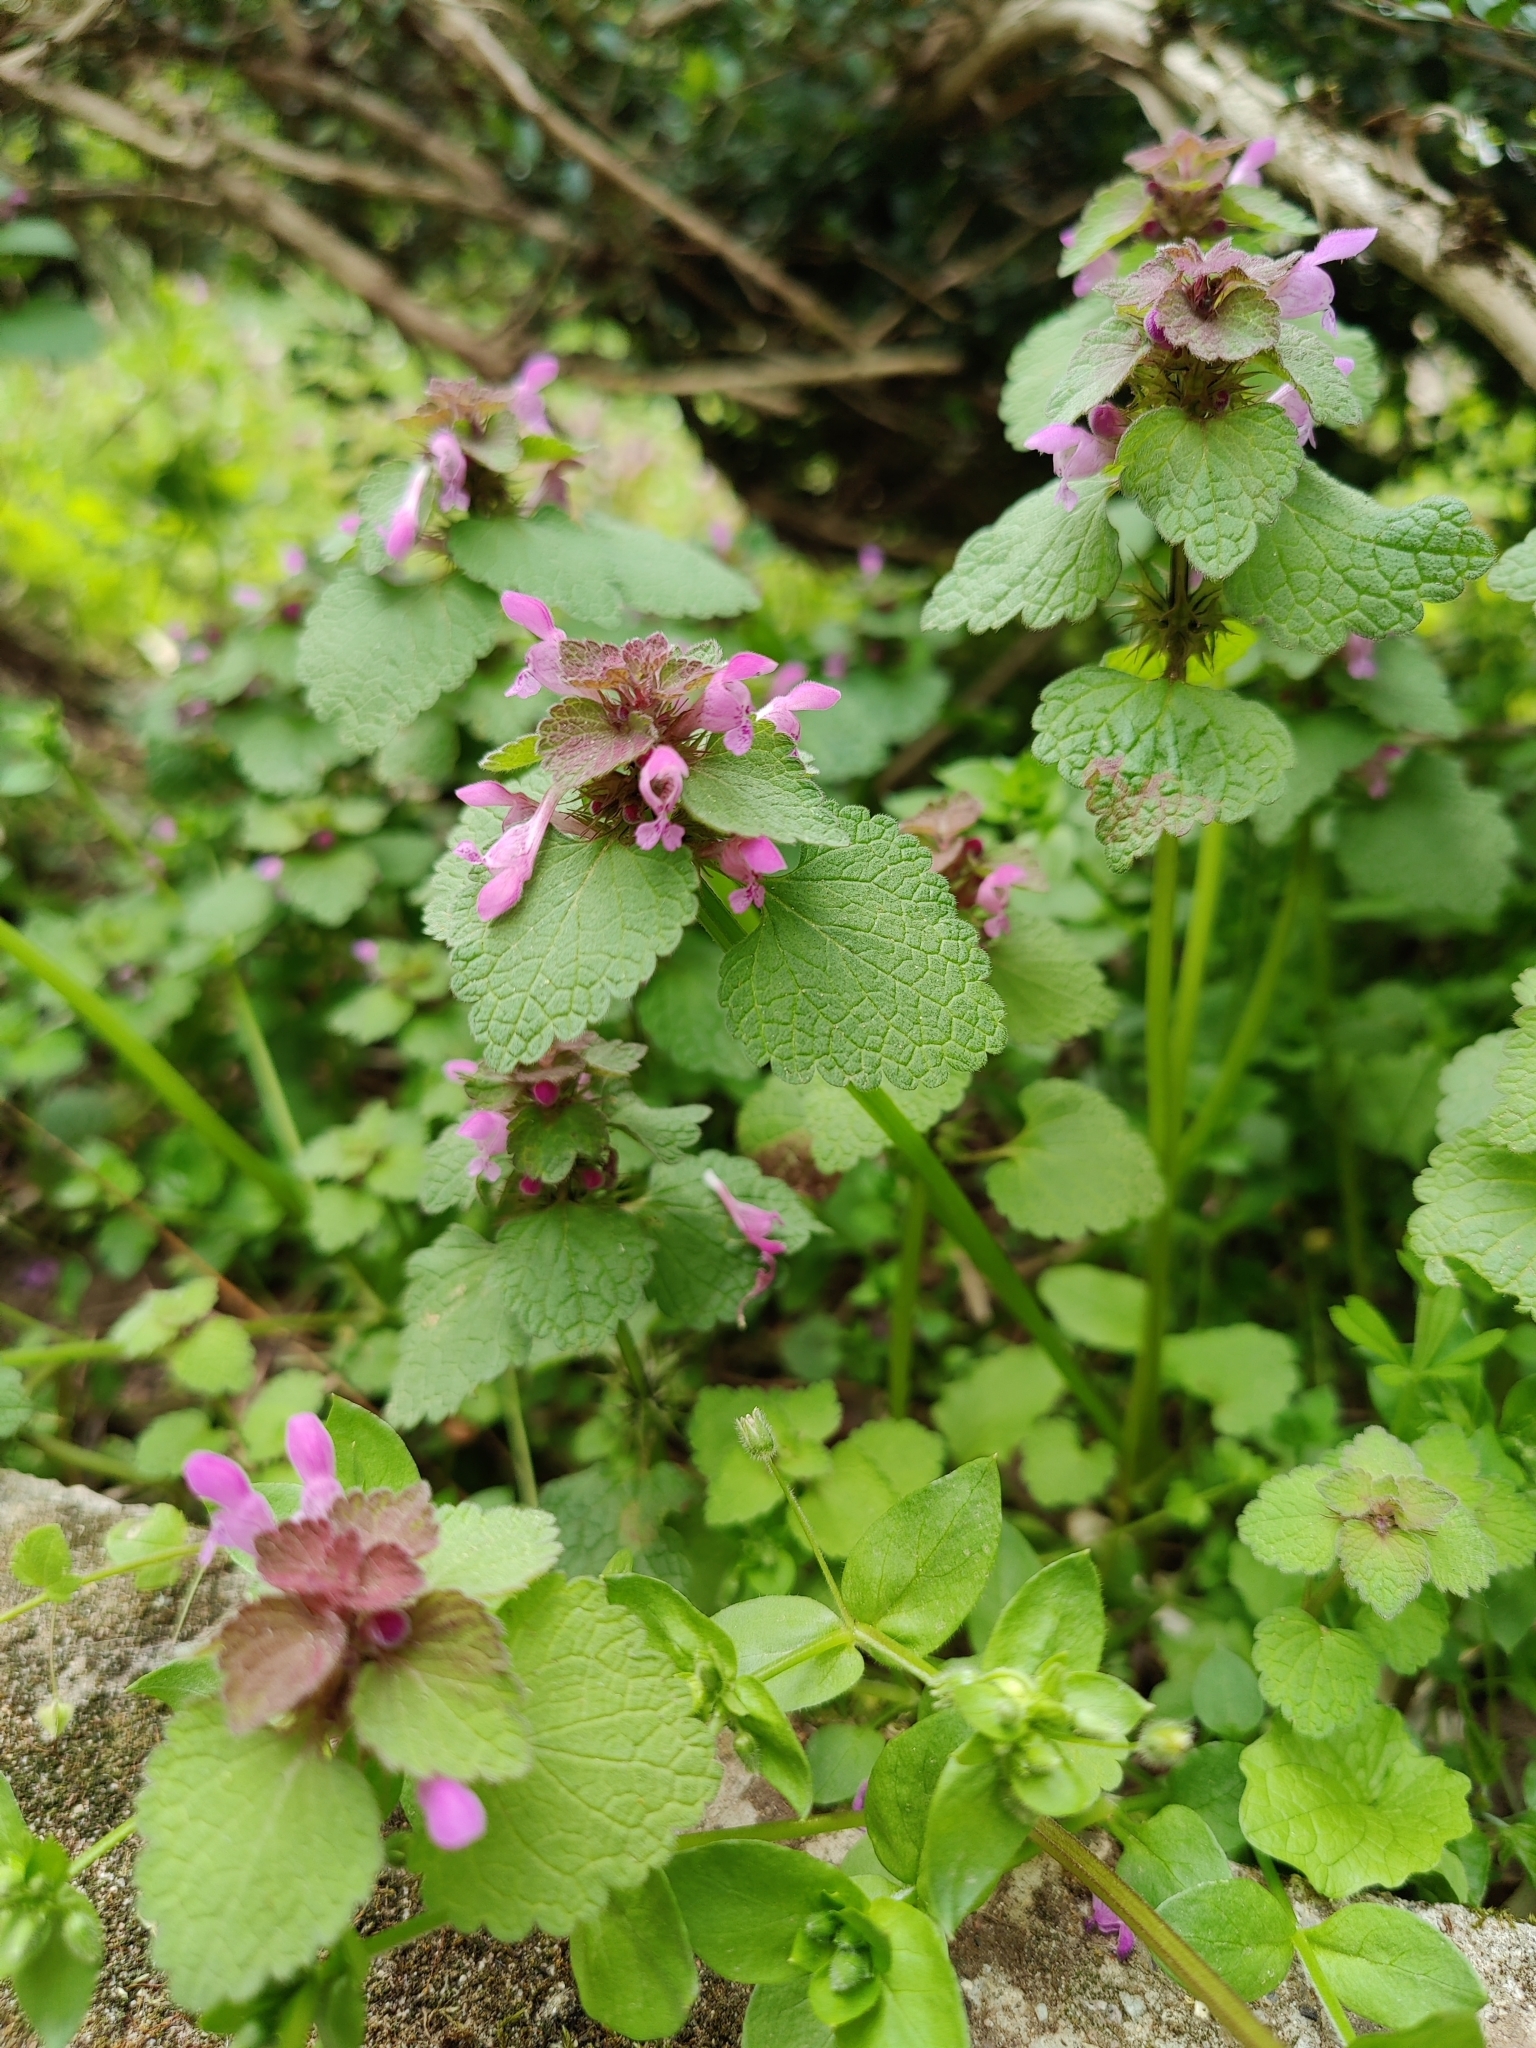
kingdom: Plantae
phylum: Tracheophyta
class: Magnoliopsida
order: Lamiales
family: Lamiaceae
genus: Lamium
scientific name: Lamium purpureum
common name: Red dead-nettle
